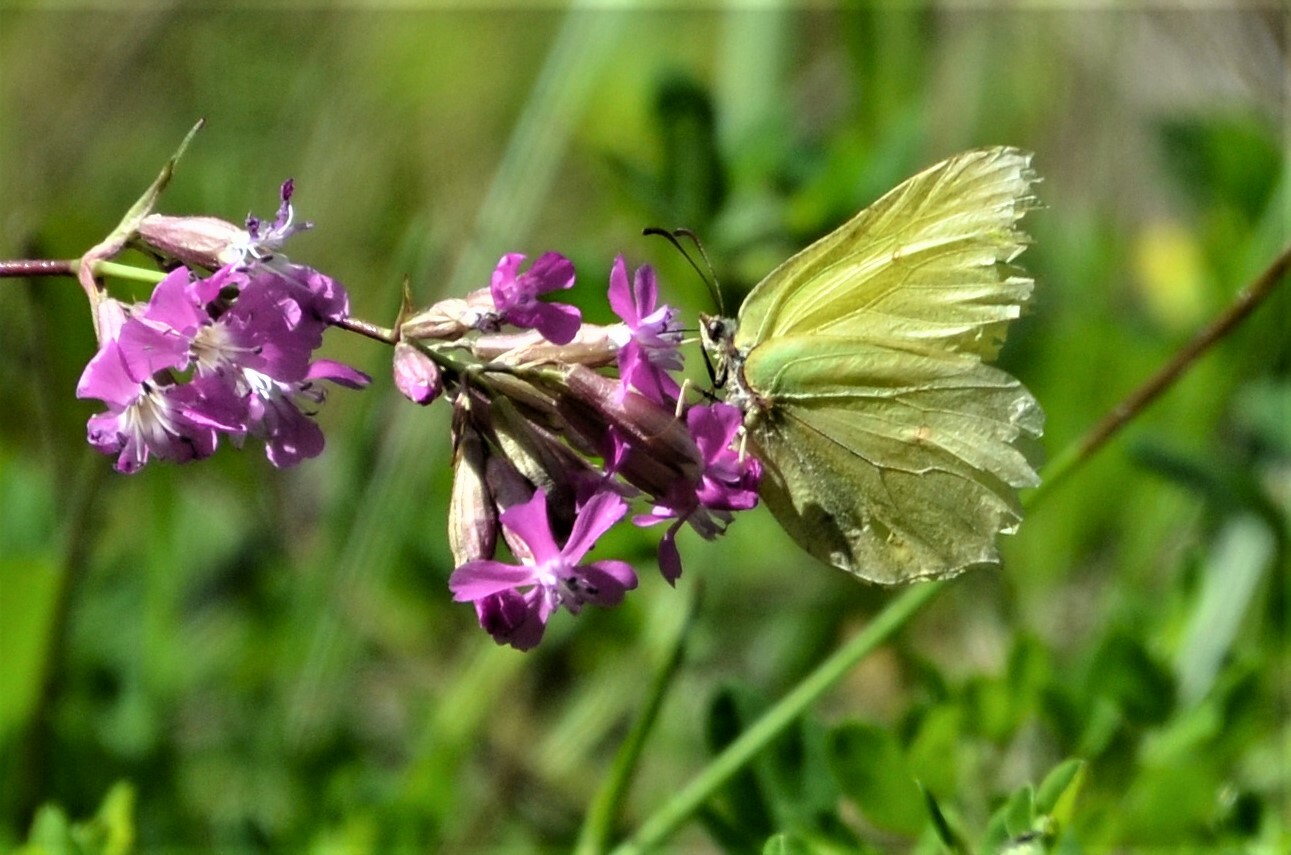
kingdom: Animalia
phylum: Arthropoda
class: Insecta
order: Lepidoptera
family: Pieridae
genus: Gonepteryx
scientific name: Gonepteryx rhamni
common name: Brimstone
